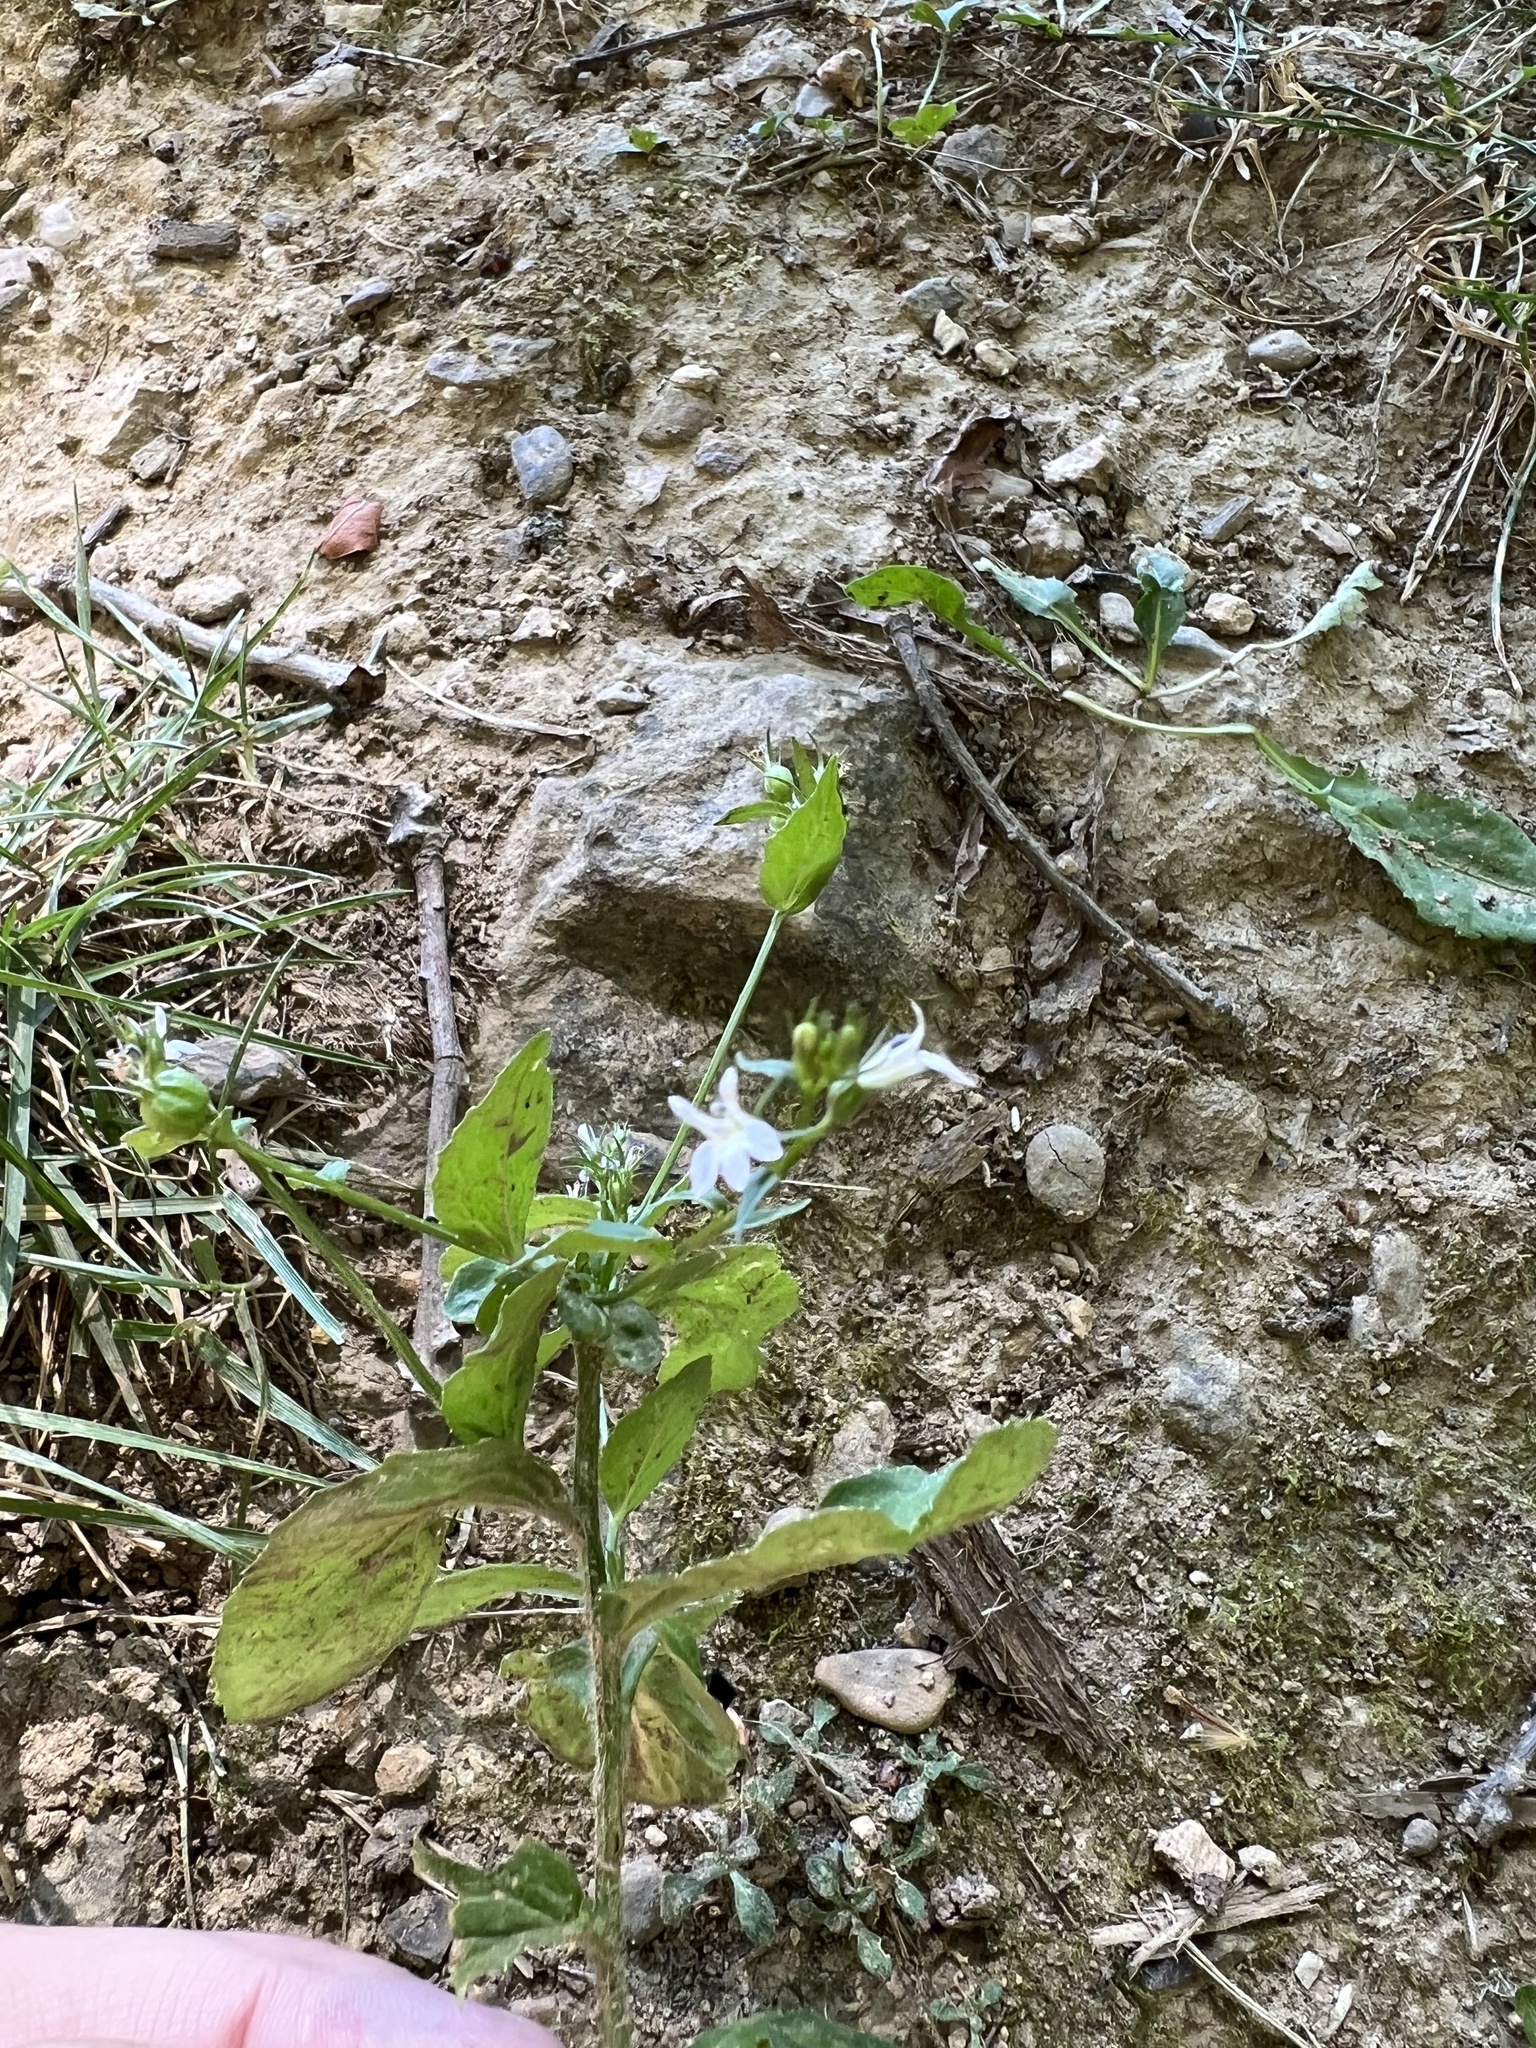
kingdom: Plantae
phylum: Tracheophyta
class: Magnoliopsida
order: Asterales
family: Campanulaceae
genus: Lobelia
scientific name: Lobelia inflata
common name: Indian tobacco
